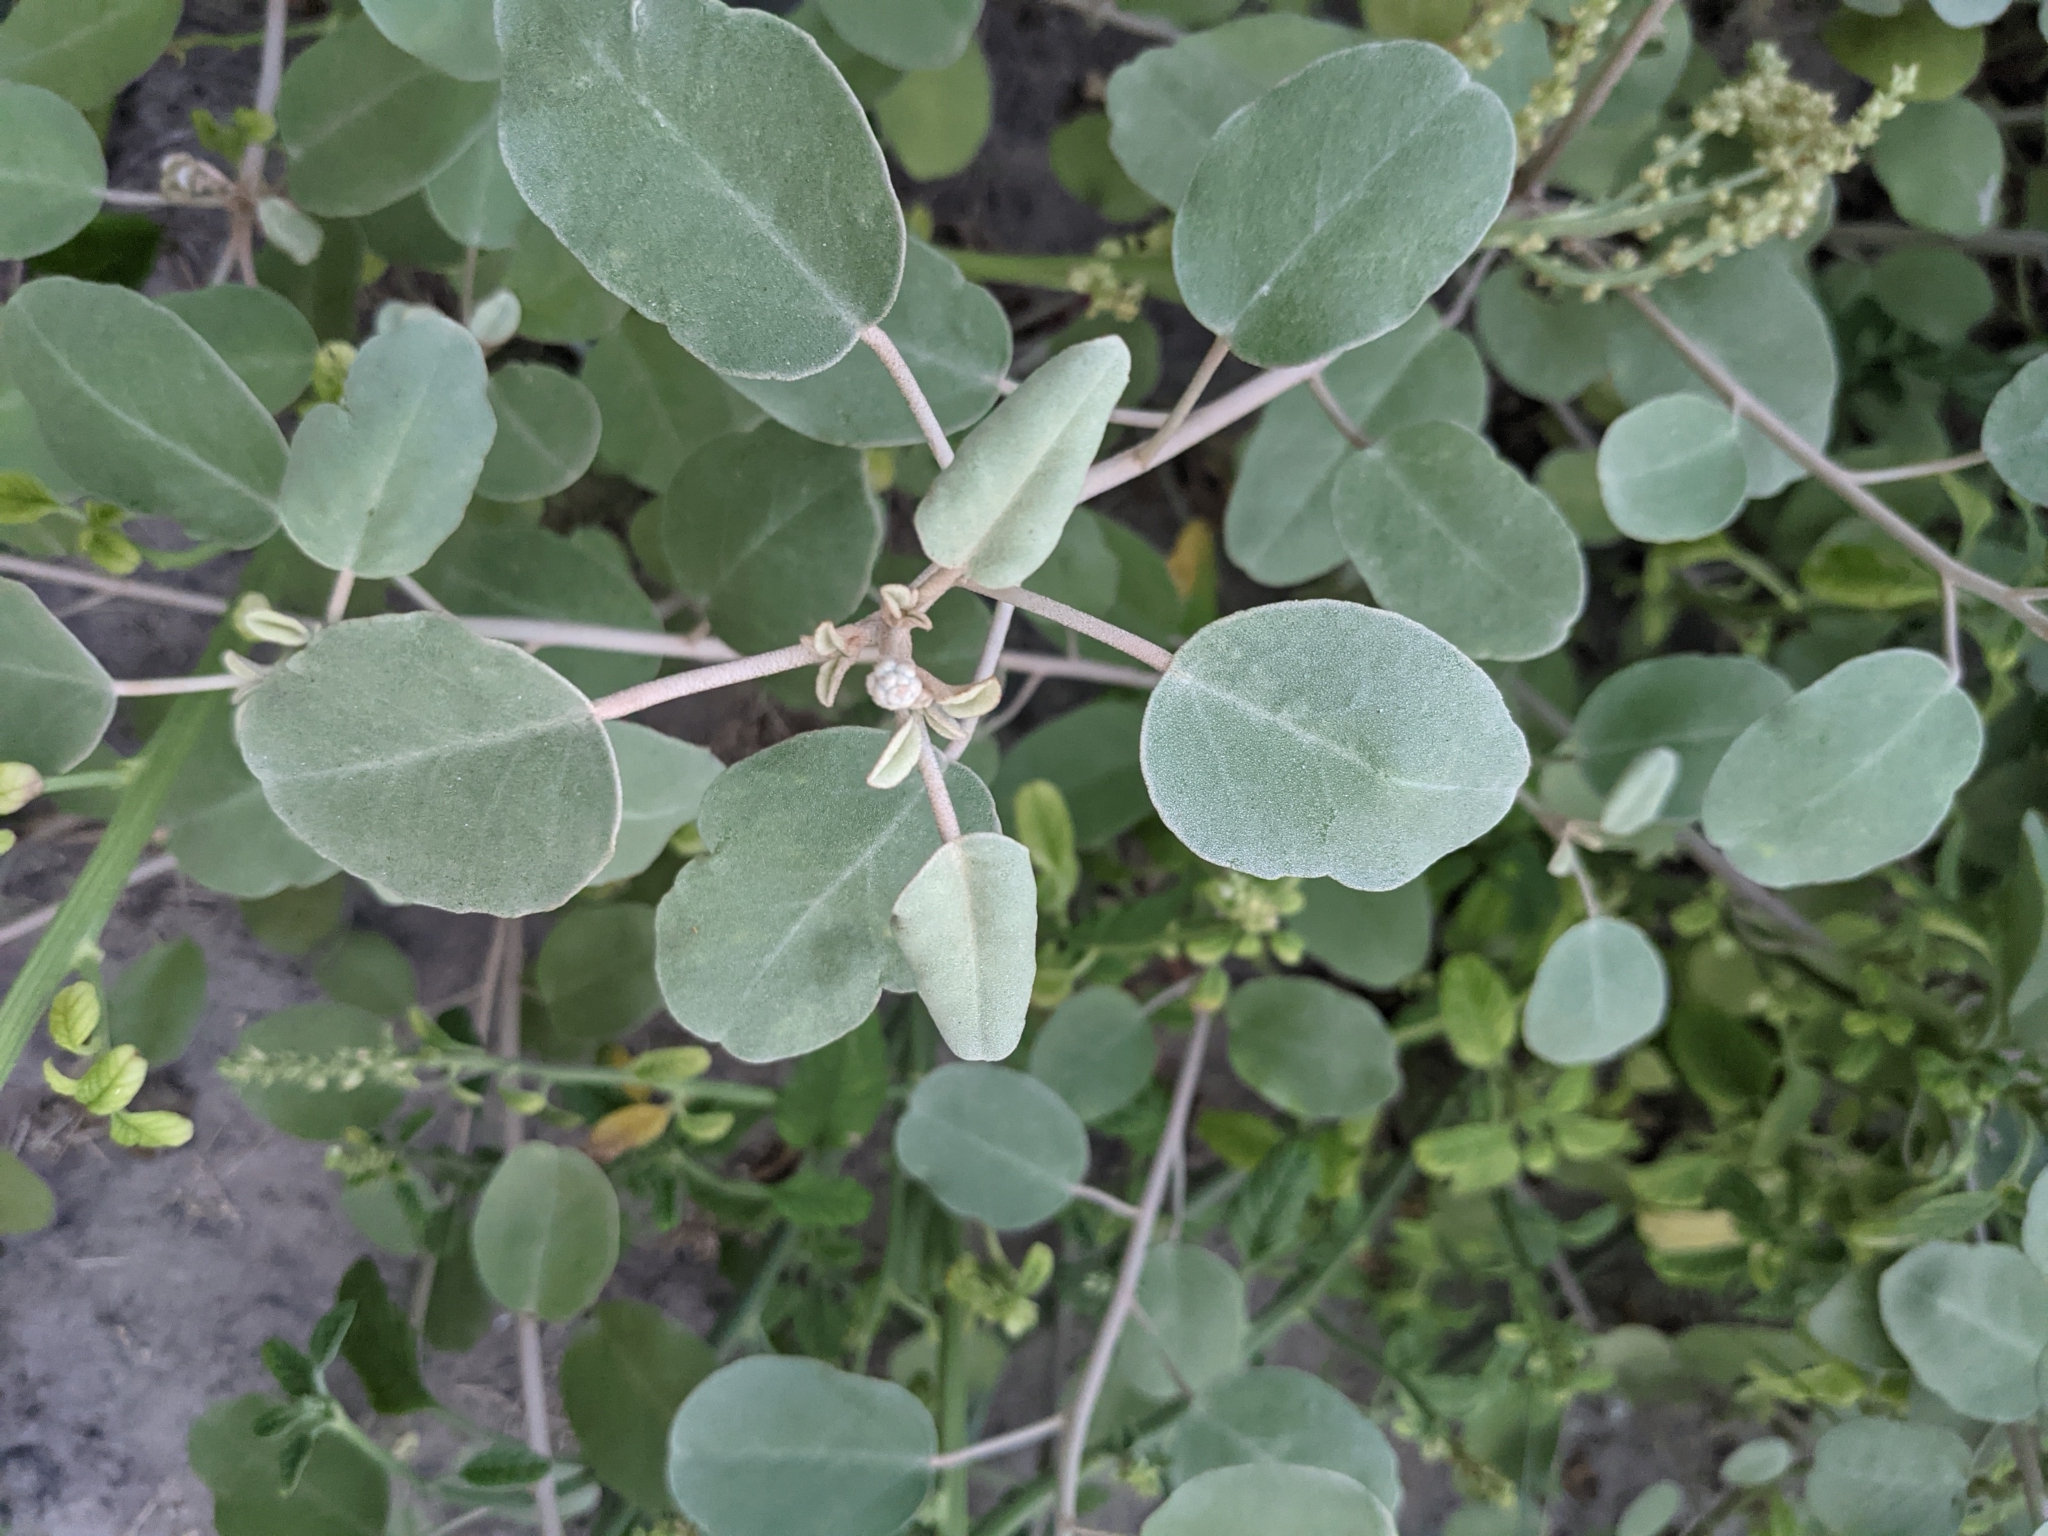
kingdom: Plantae
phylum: Tracheophyta
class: Magnoliopsida
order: Malpighiales
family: Euphorbiaceae
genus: Croton
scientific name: Croton punctatus
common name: Beach-tea
